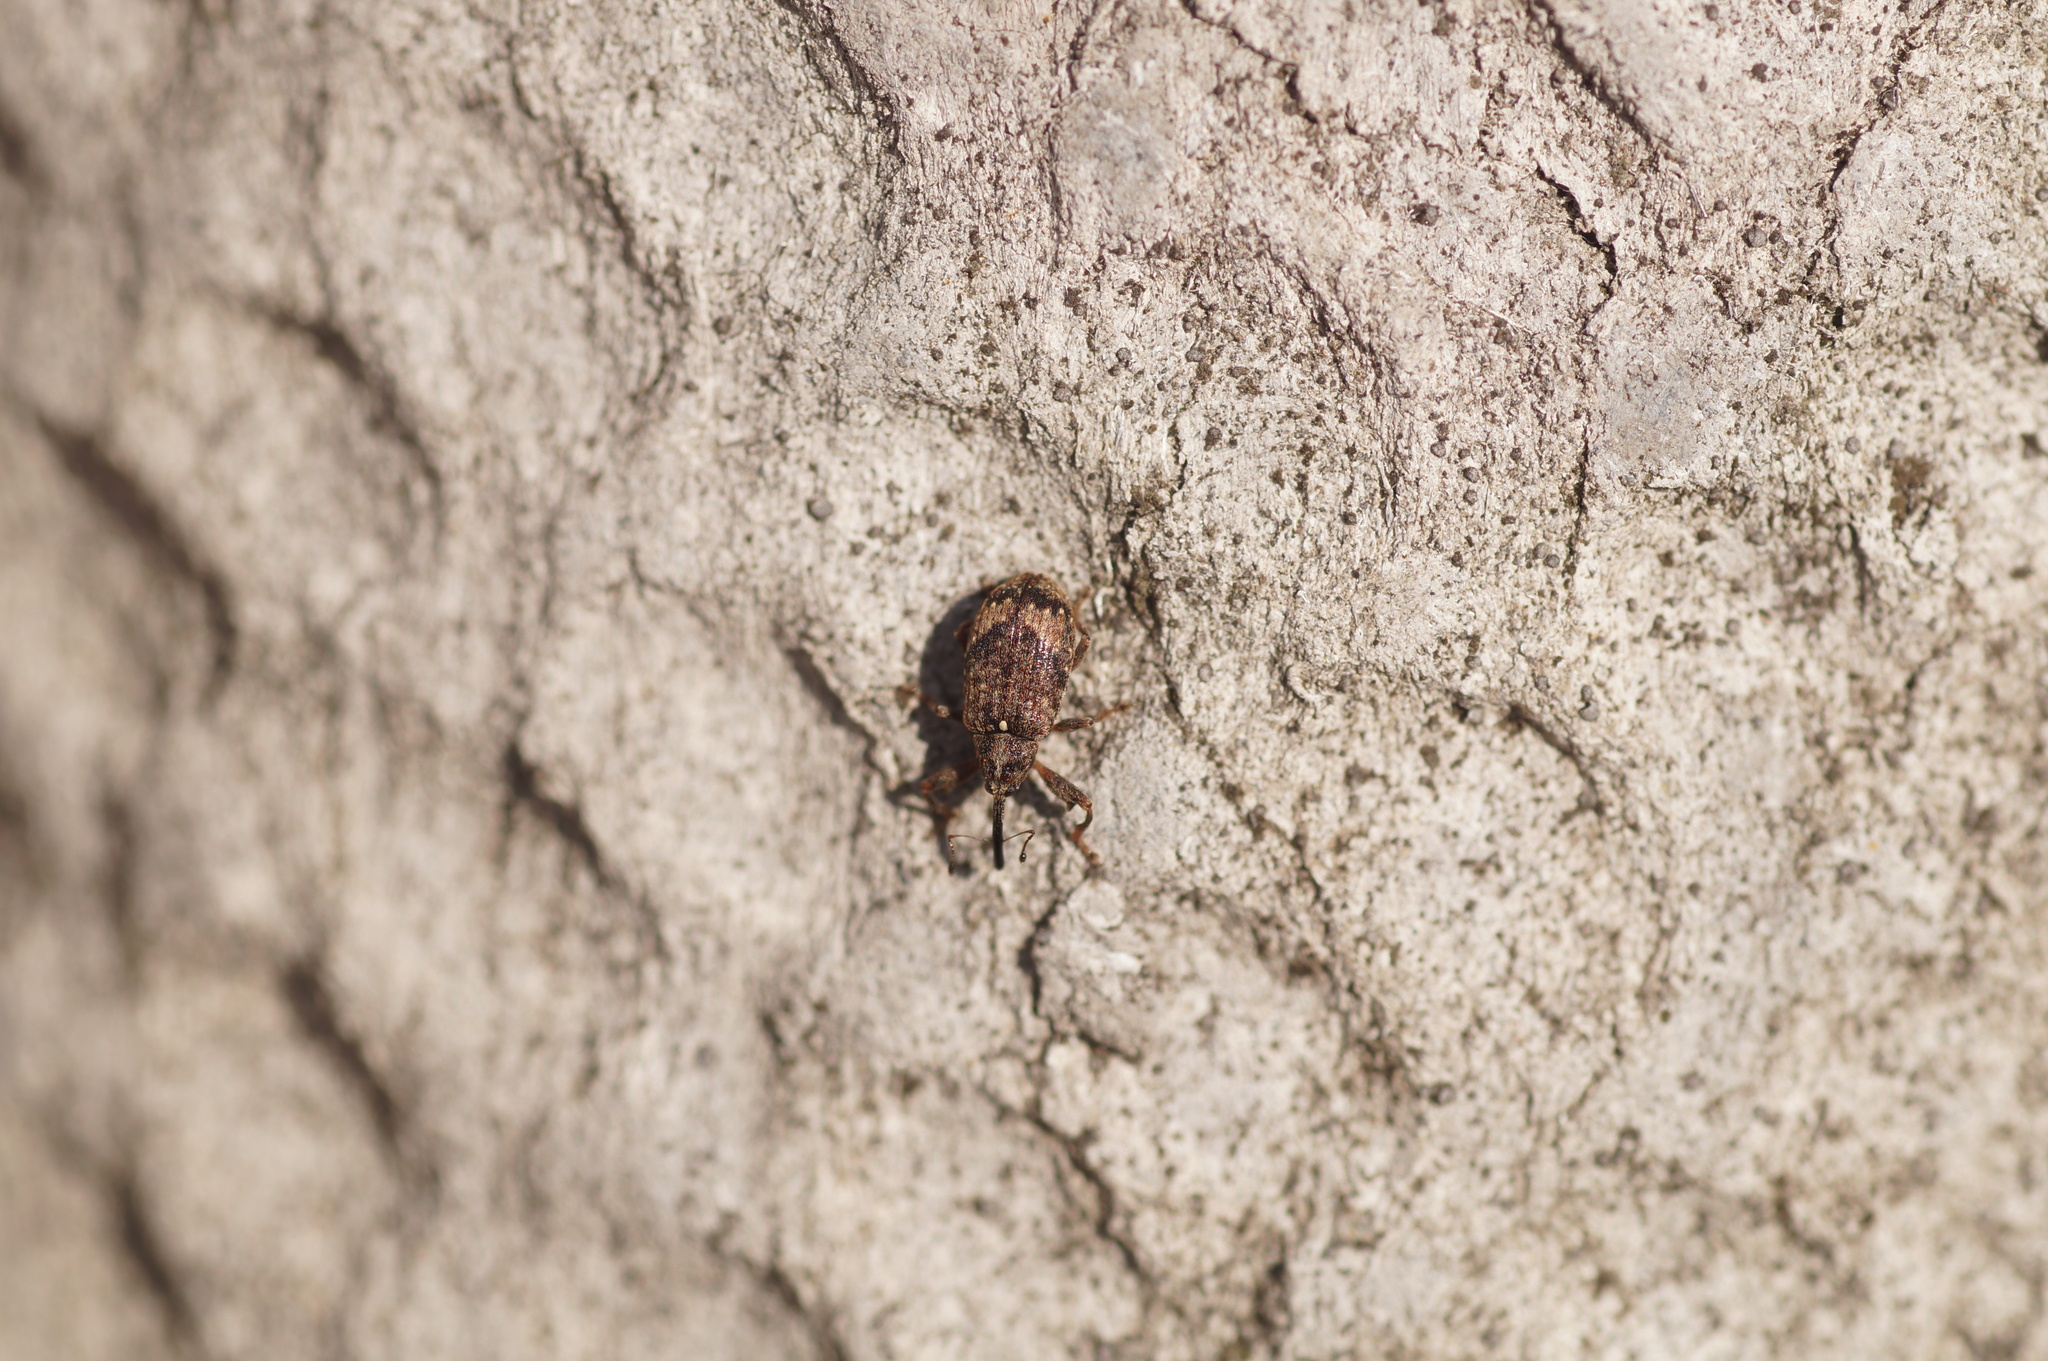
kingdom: Animalia
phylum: Arthropoda
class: Insecta
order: Coleoptera
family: Curculionidae
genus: Anthonomus
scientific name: Anthonomus pomorum
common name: Apple-blossom weevil
